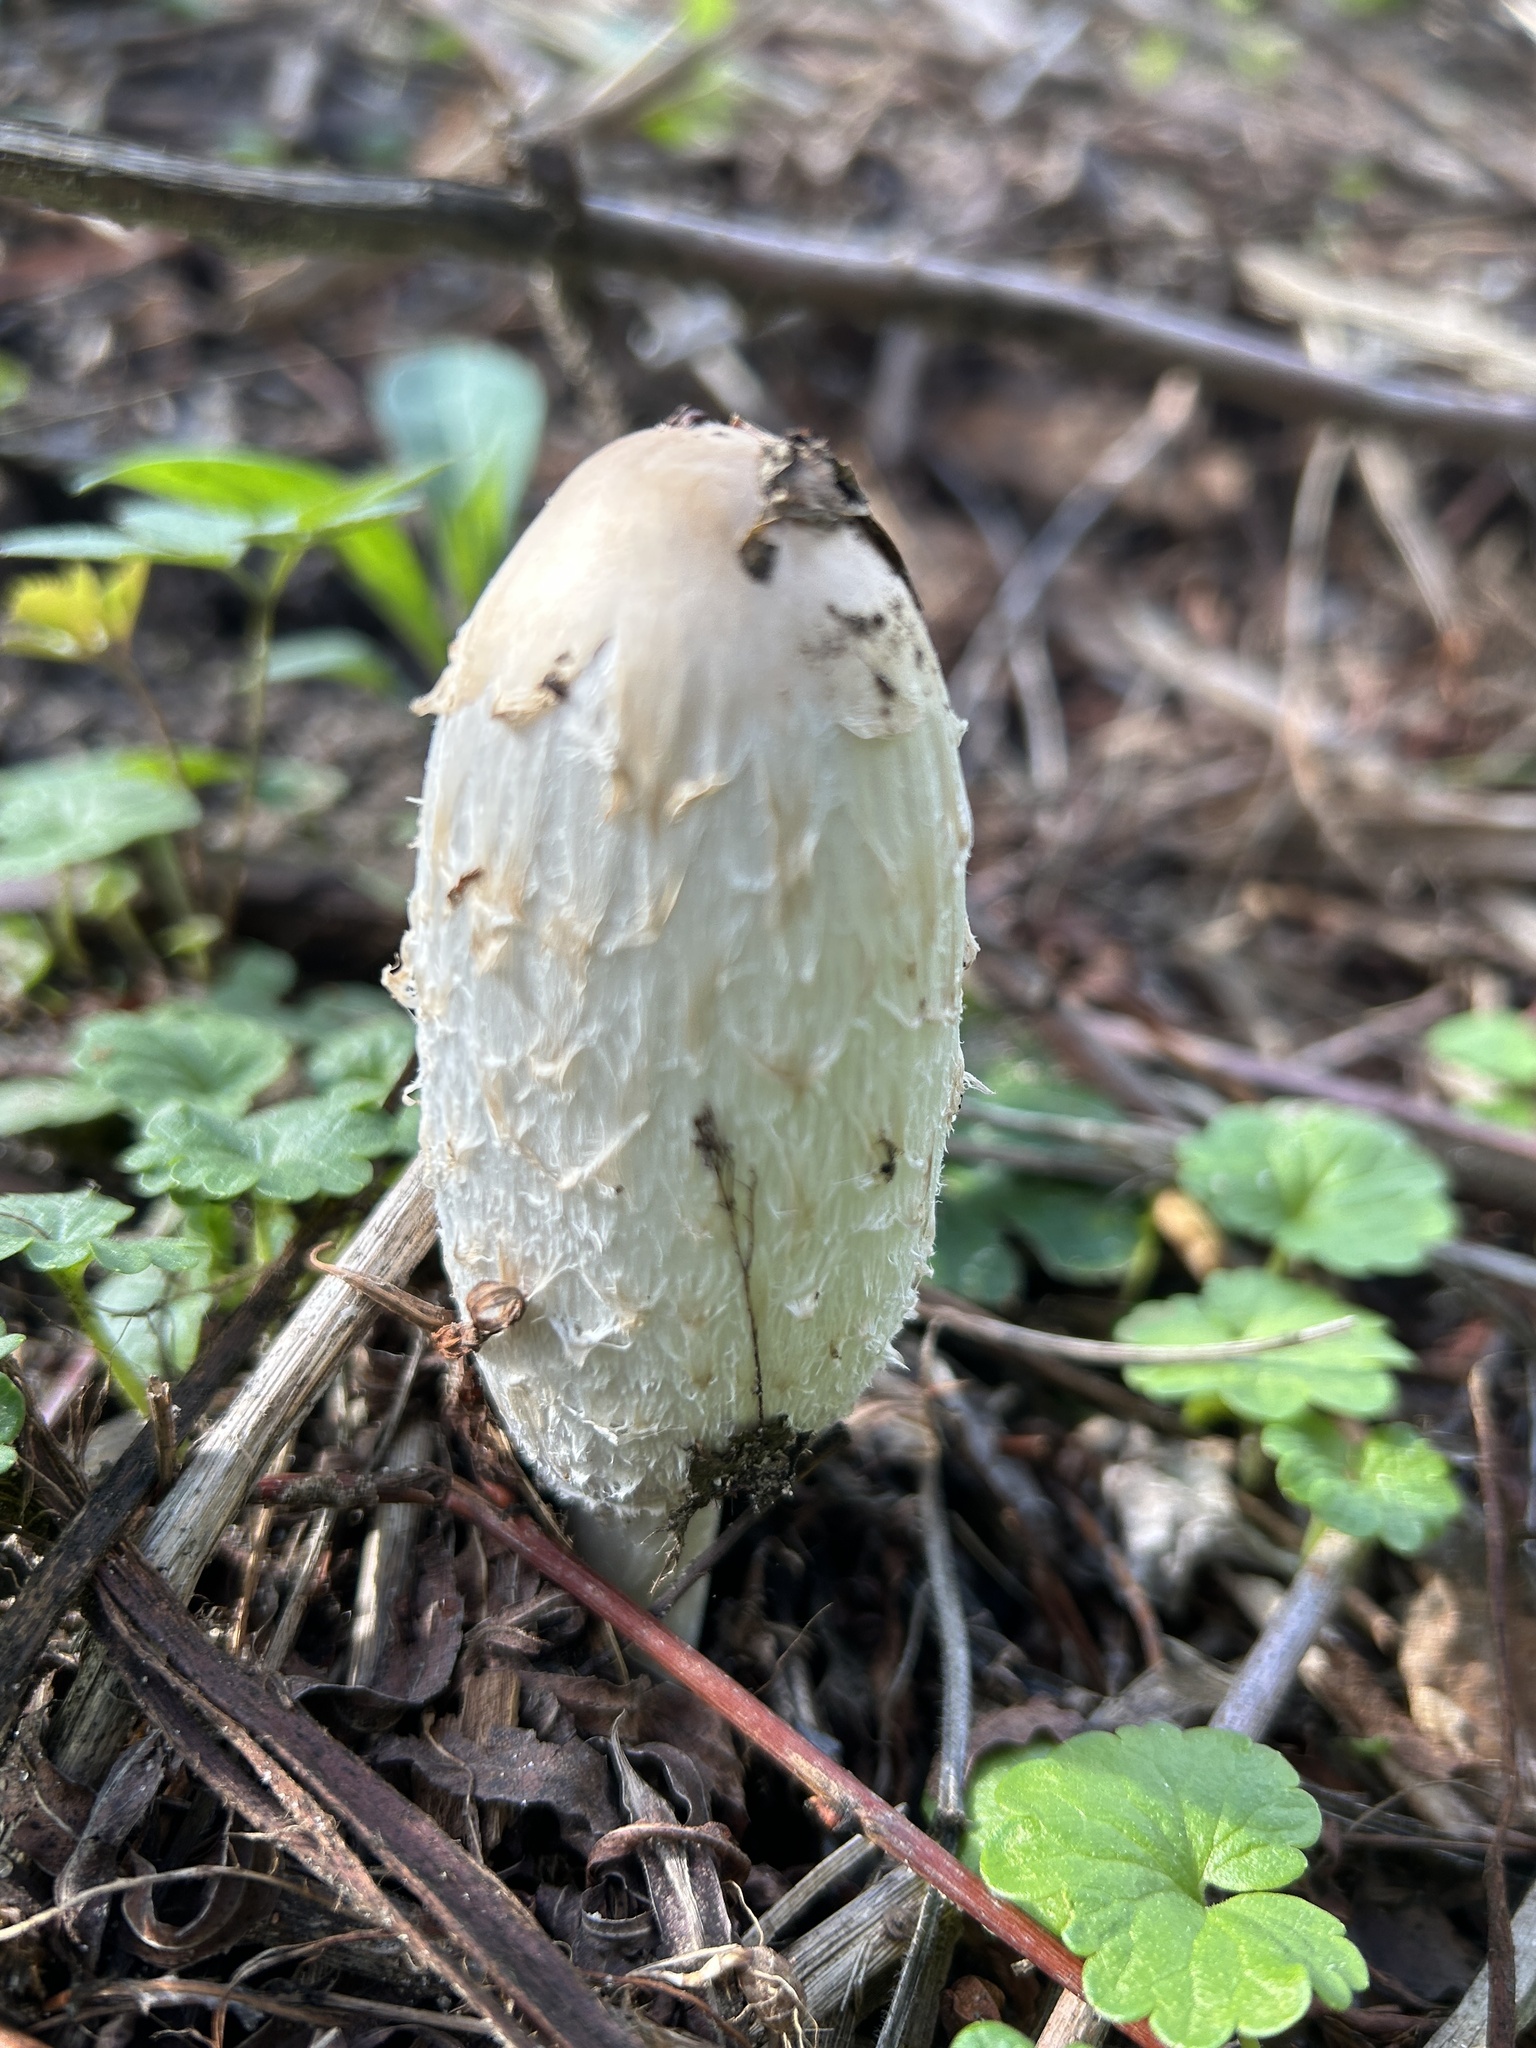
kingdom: Fungi
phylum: Basidiomycota
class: Agaricomycetes
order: Agaricales
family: Agaricaceae
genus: Coprinus
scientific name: Coprinus comatus
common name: Lawyer's wig
